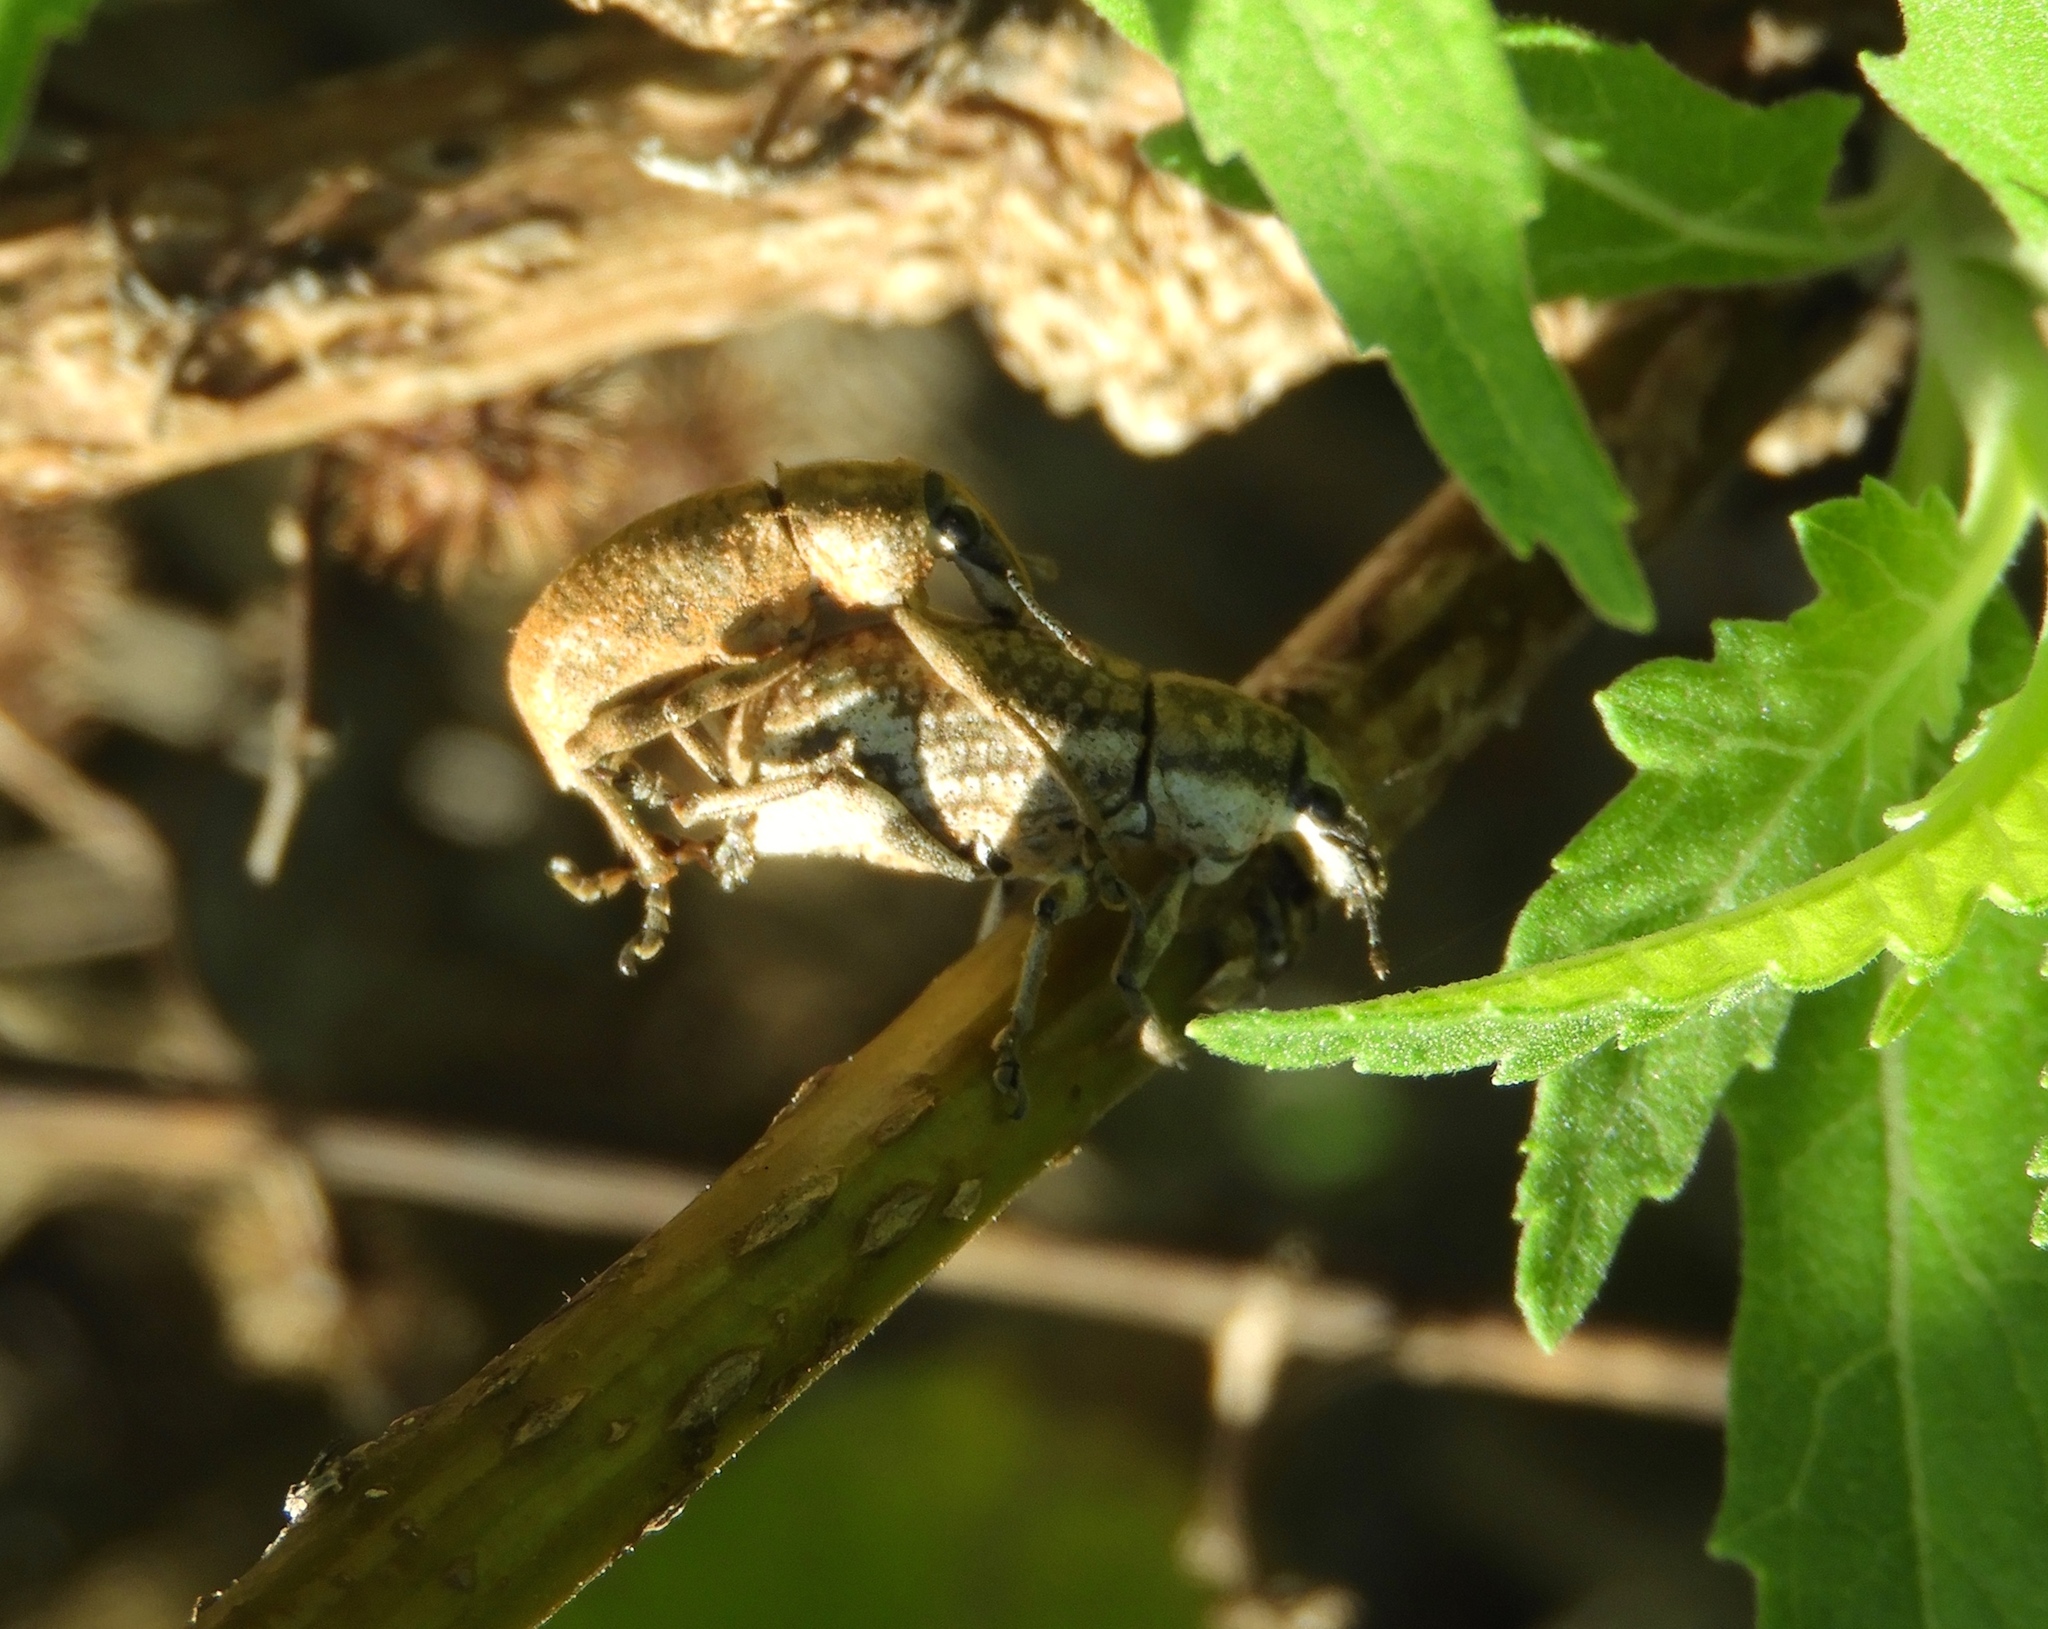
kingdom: Animalia
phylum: Arthropoda
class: Insecta
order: Coleoptera
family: Curculionidae
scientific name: Curculionidae
